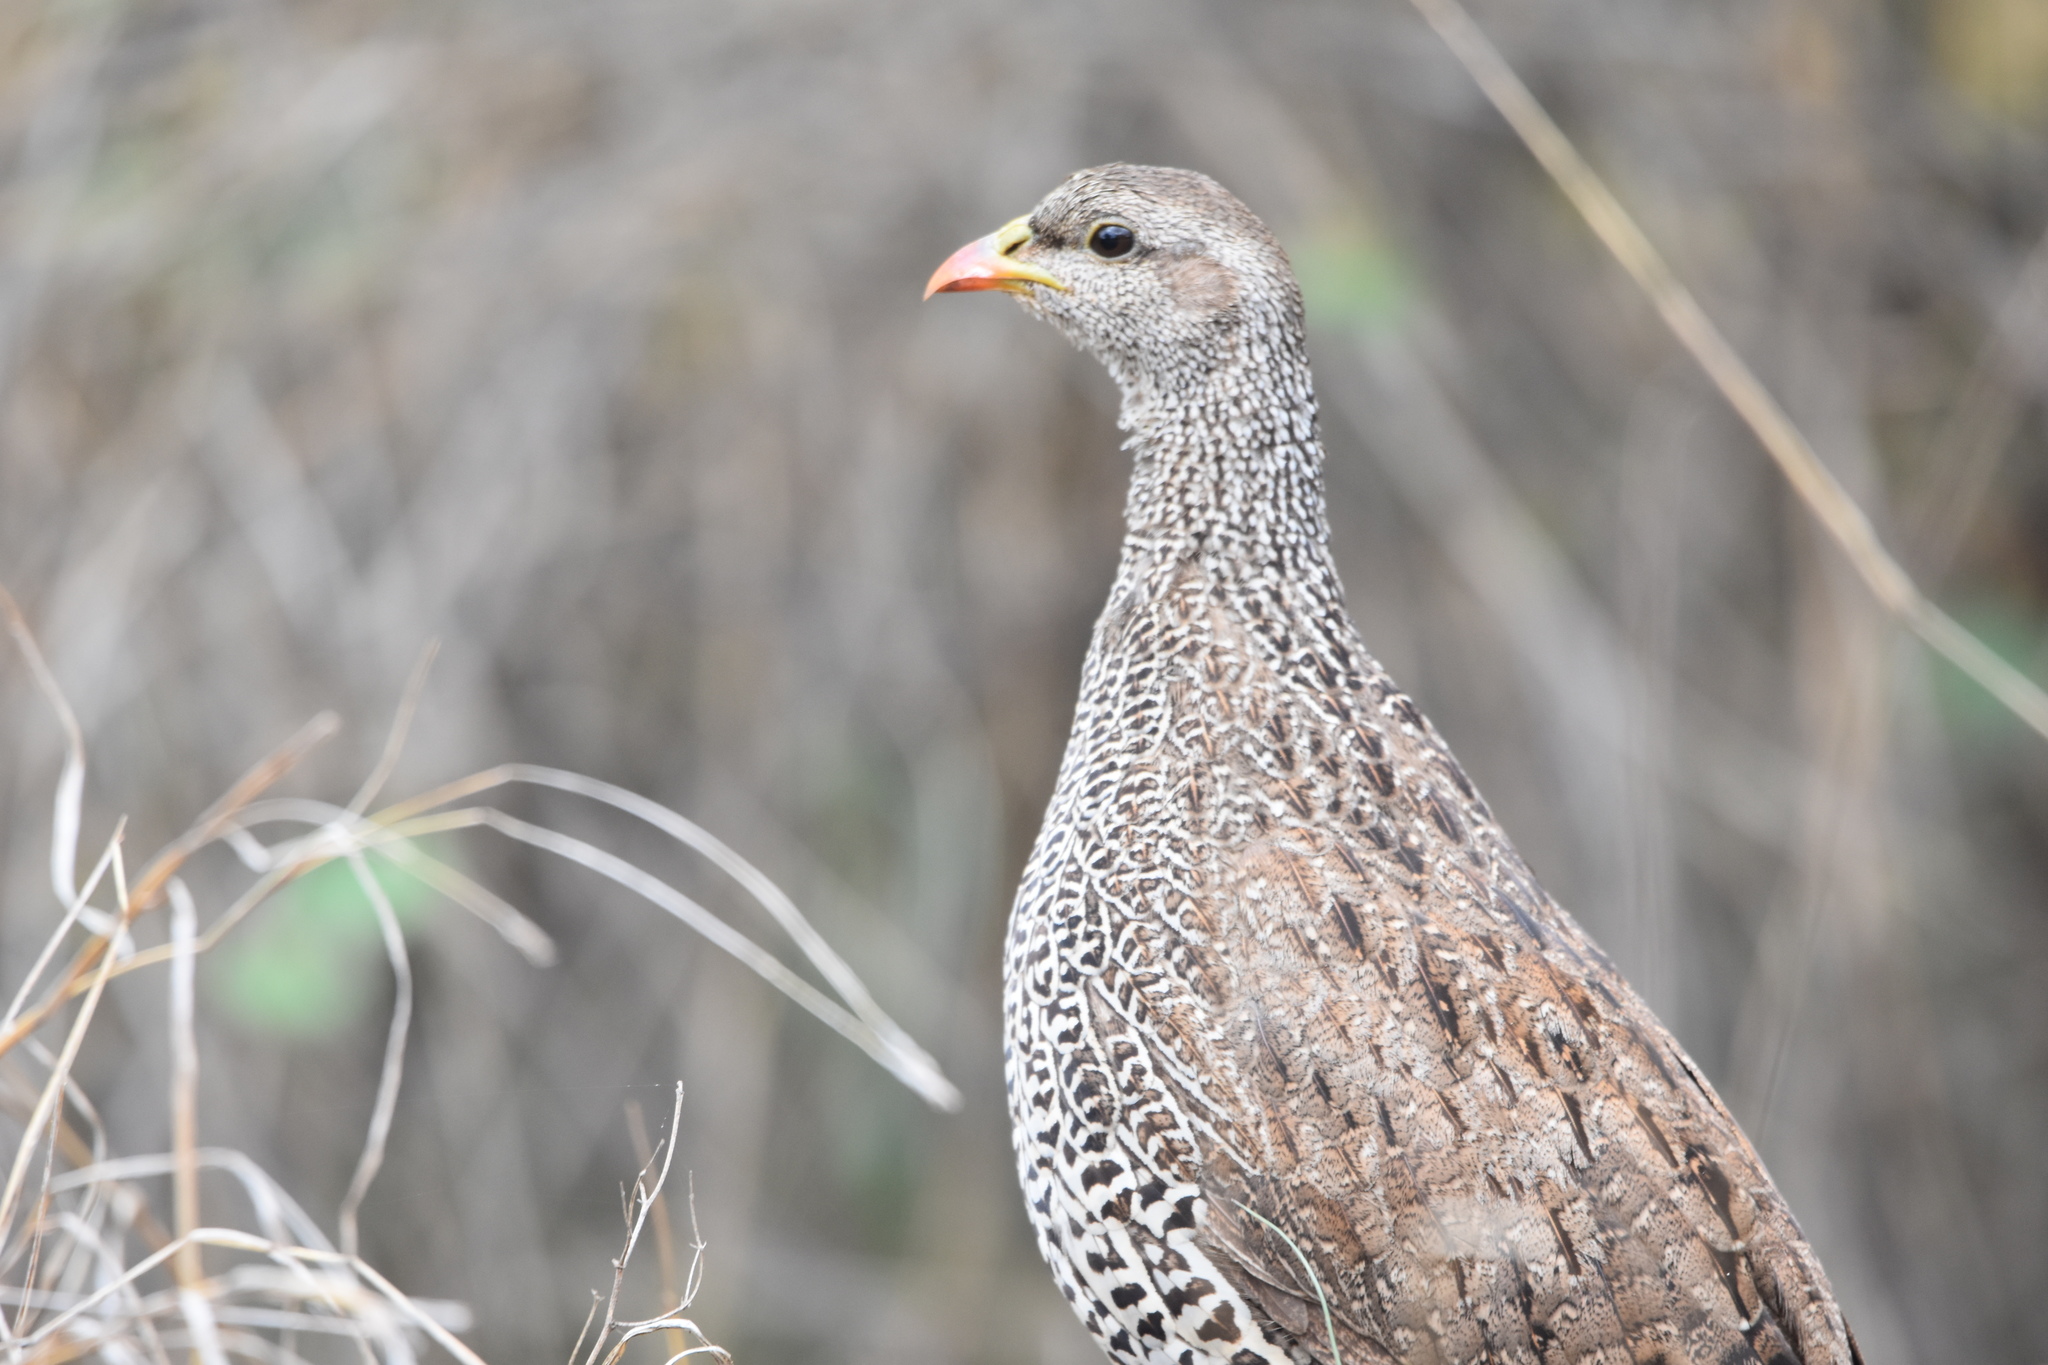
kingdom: Animalia
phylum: Chordata
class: Aves
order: Galliformes
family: Phasianidae
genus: Pternistis
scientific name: Pternistis natalensis
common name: Natal spurfowl
